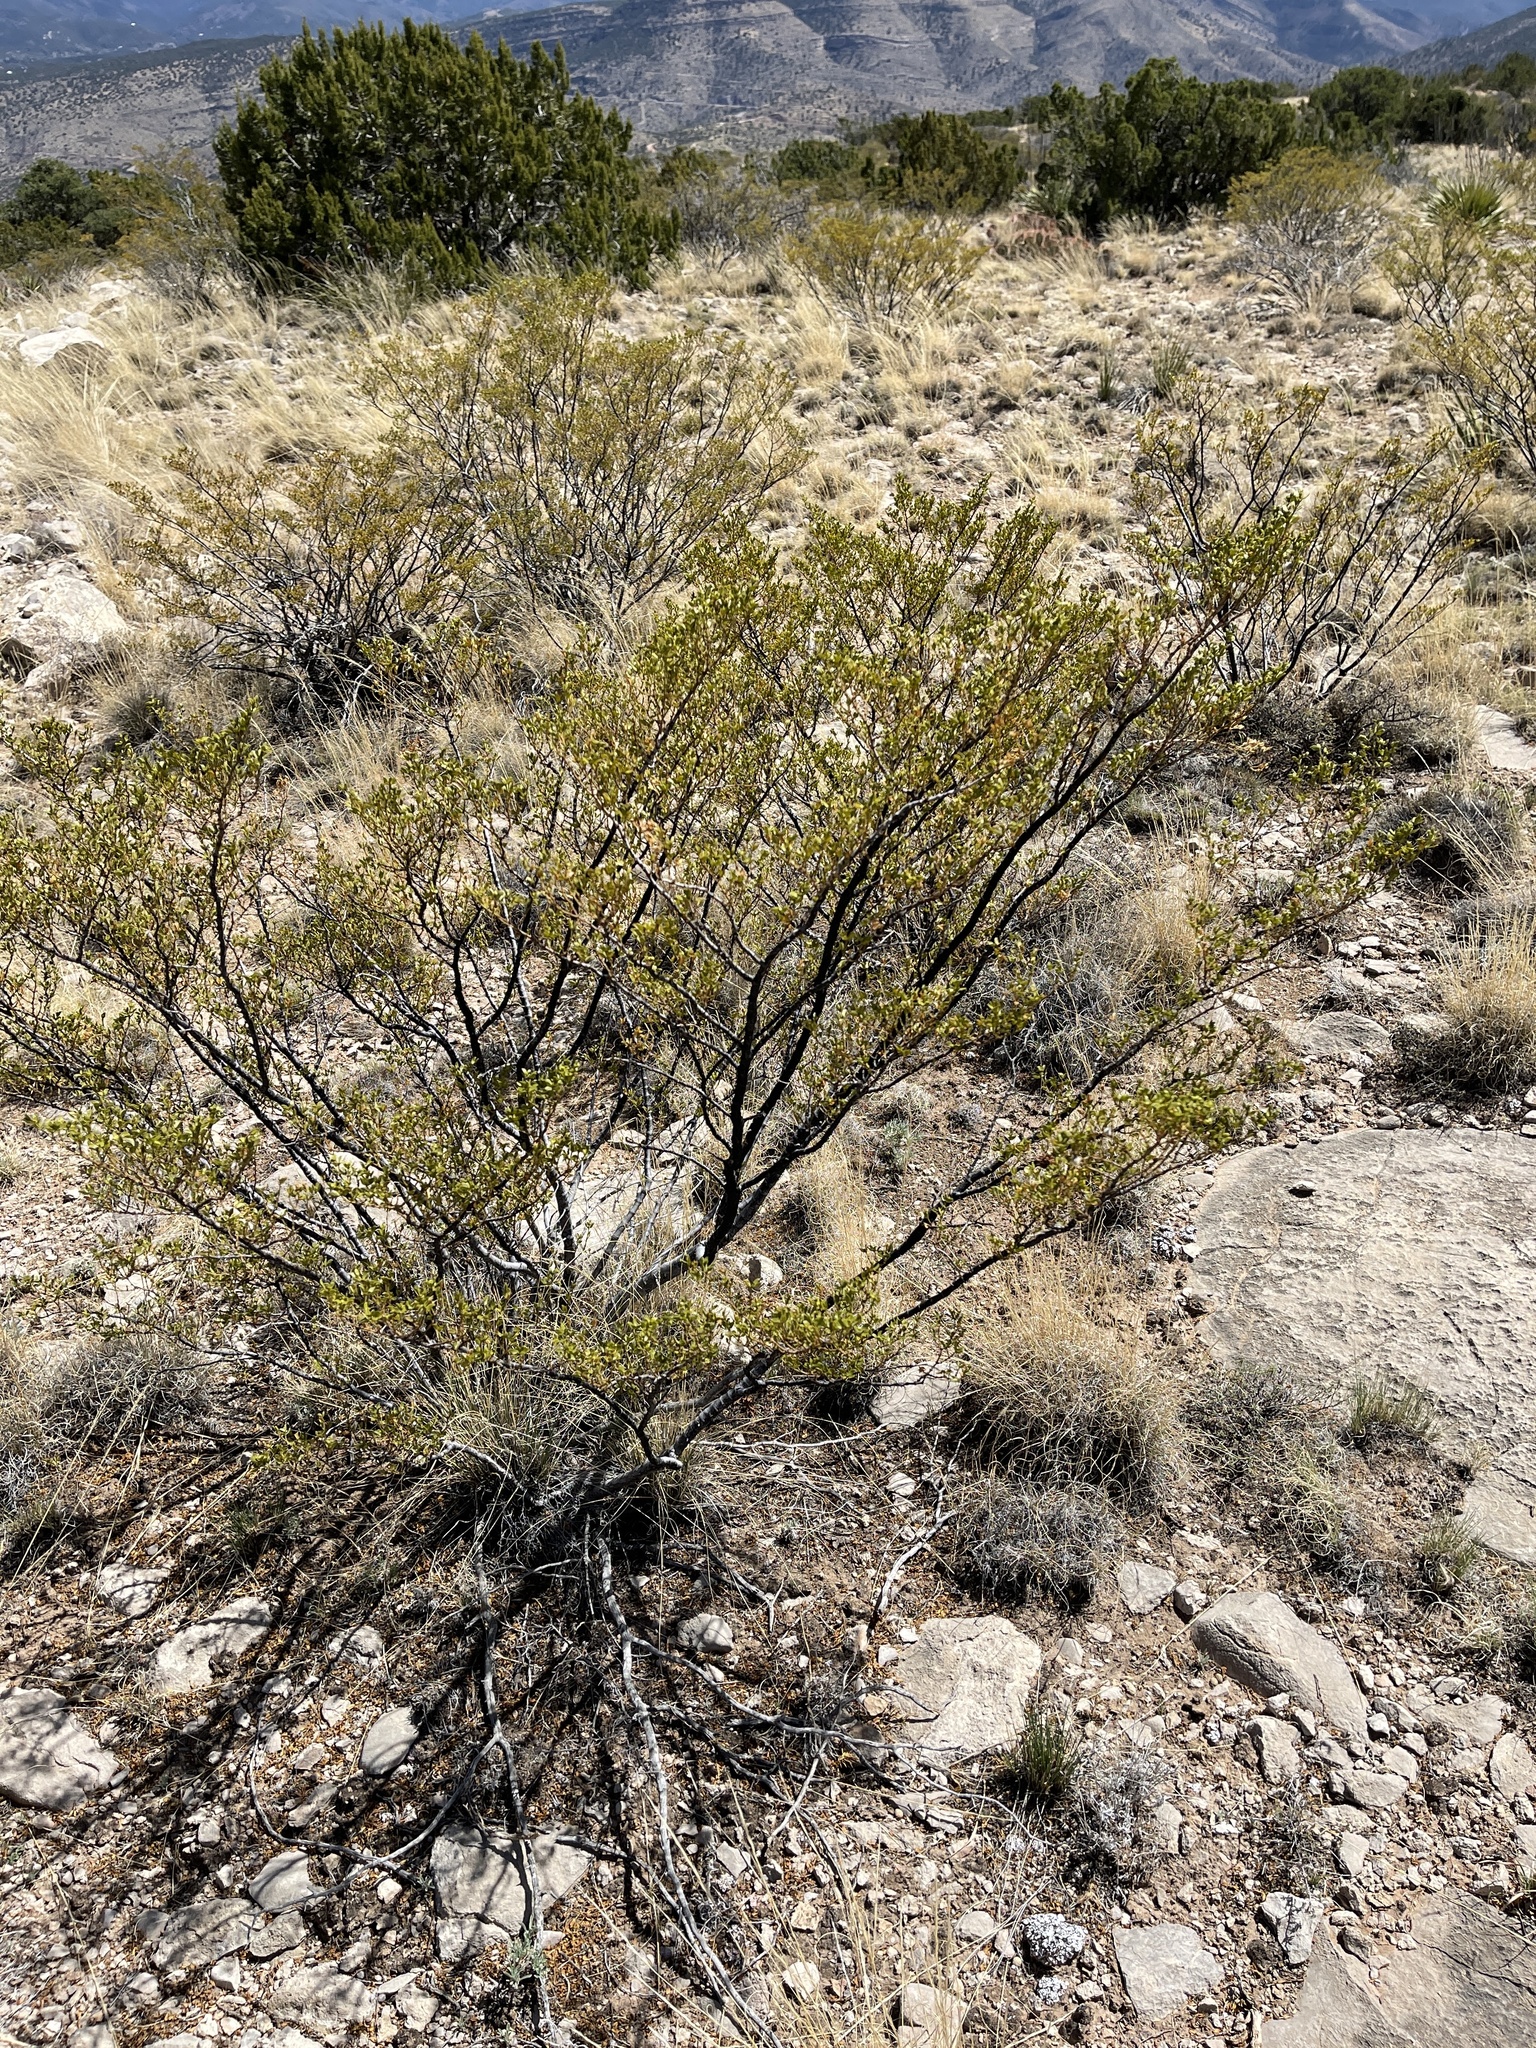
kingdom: Plantae
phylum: Tracheophyta
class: Magnoliopsida
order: Zygophyllales
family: Zygophyllaceae
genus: Larrea
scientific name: Larrea tridentata
